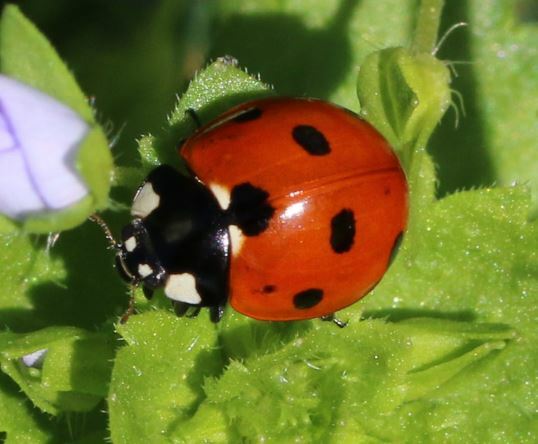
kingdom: Animalia
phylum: Arthropoda
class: Insecta
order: Coleoptera
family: Coccinellidae
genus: Coccinella
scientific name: Coccinella septempunctata
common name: Sevenspotted lady beetle
